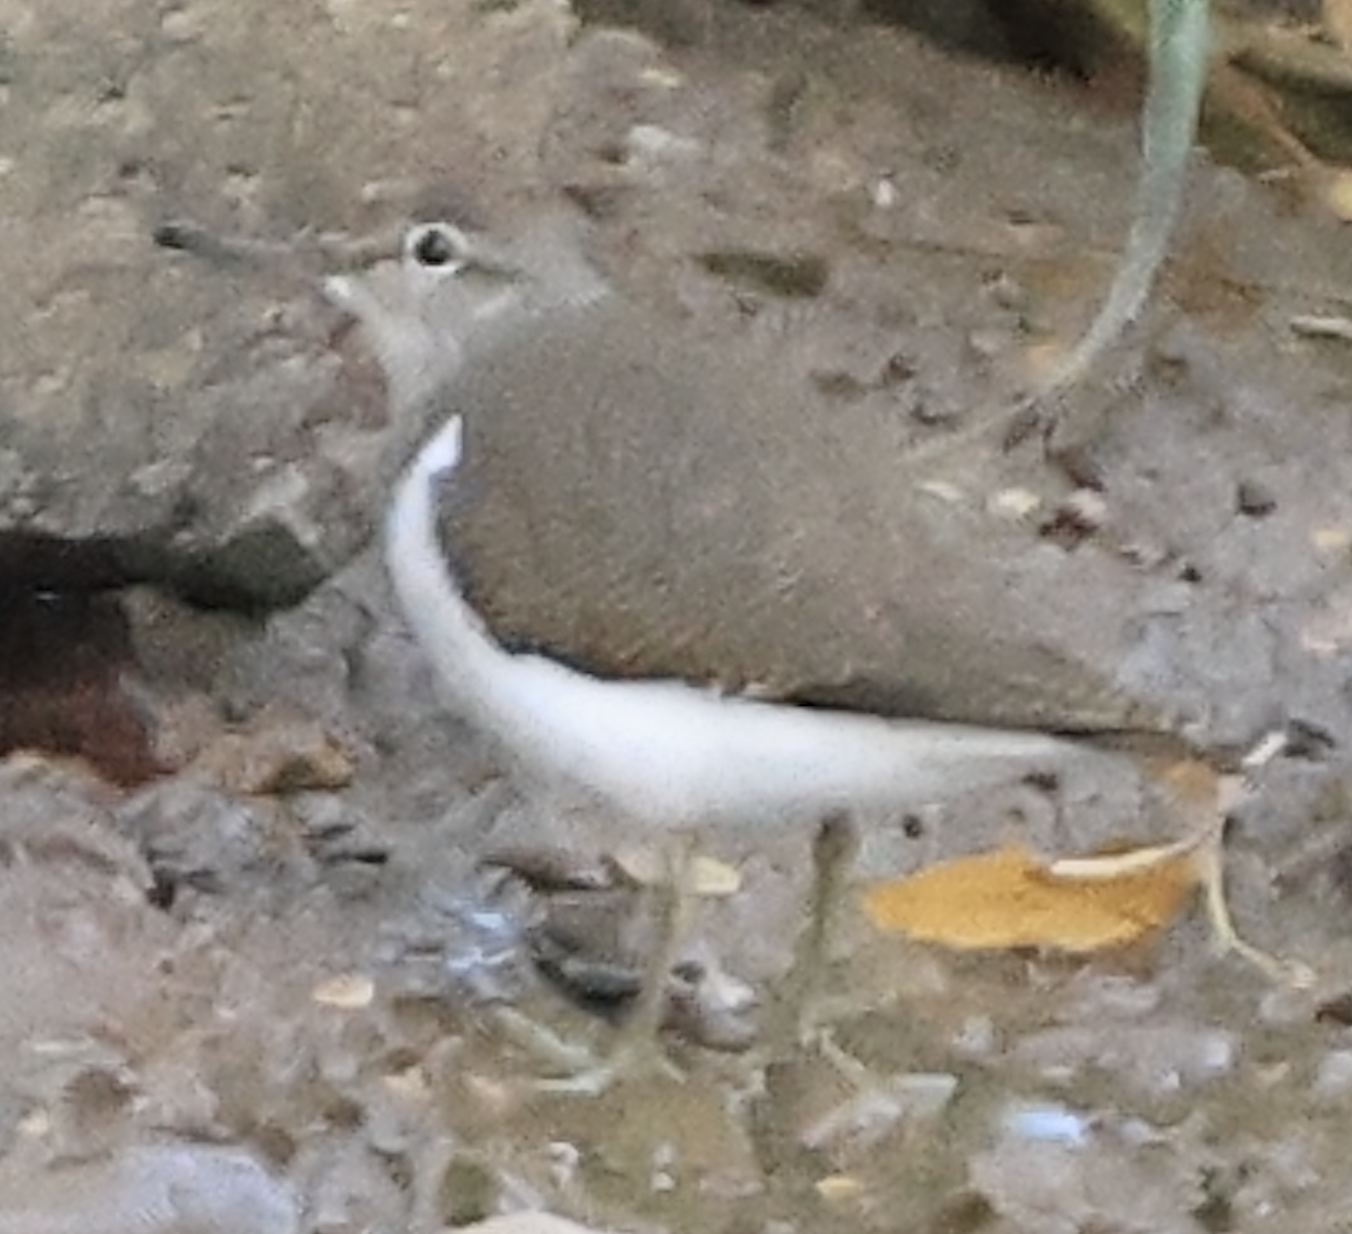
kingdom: Animalia
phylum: Chordata
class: Aves
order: Charadriiformes
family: Scolopacidae
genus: Actitis
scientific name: Actitis hypoleucos
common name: Common sandpiper
